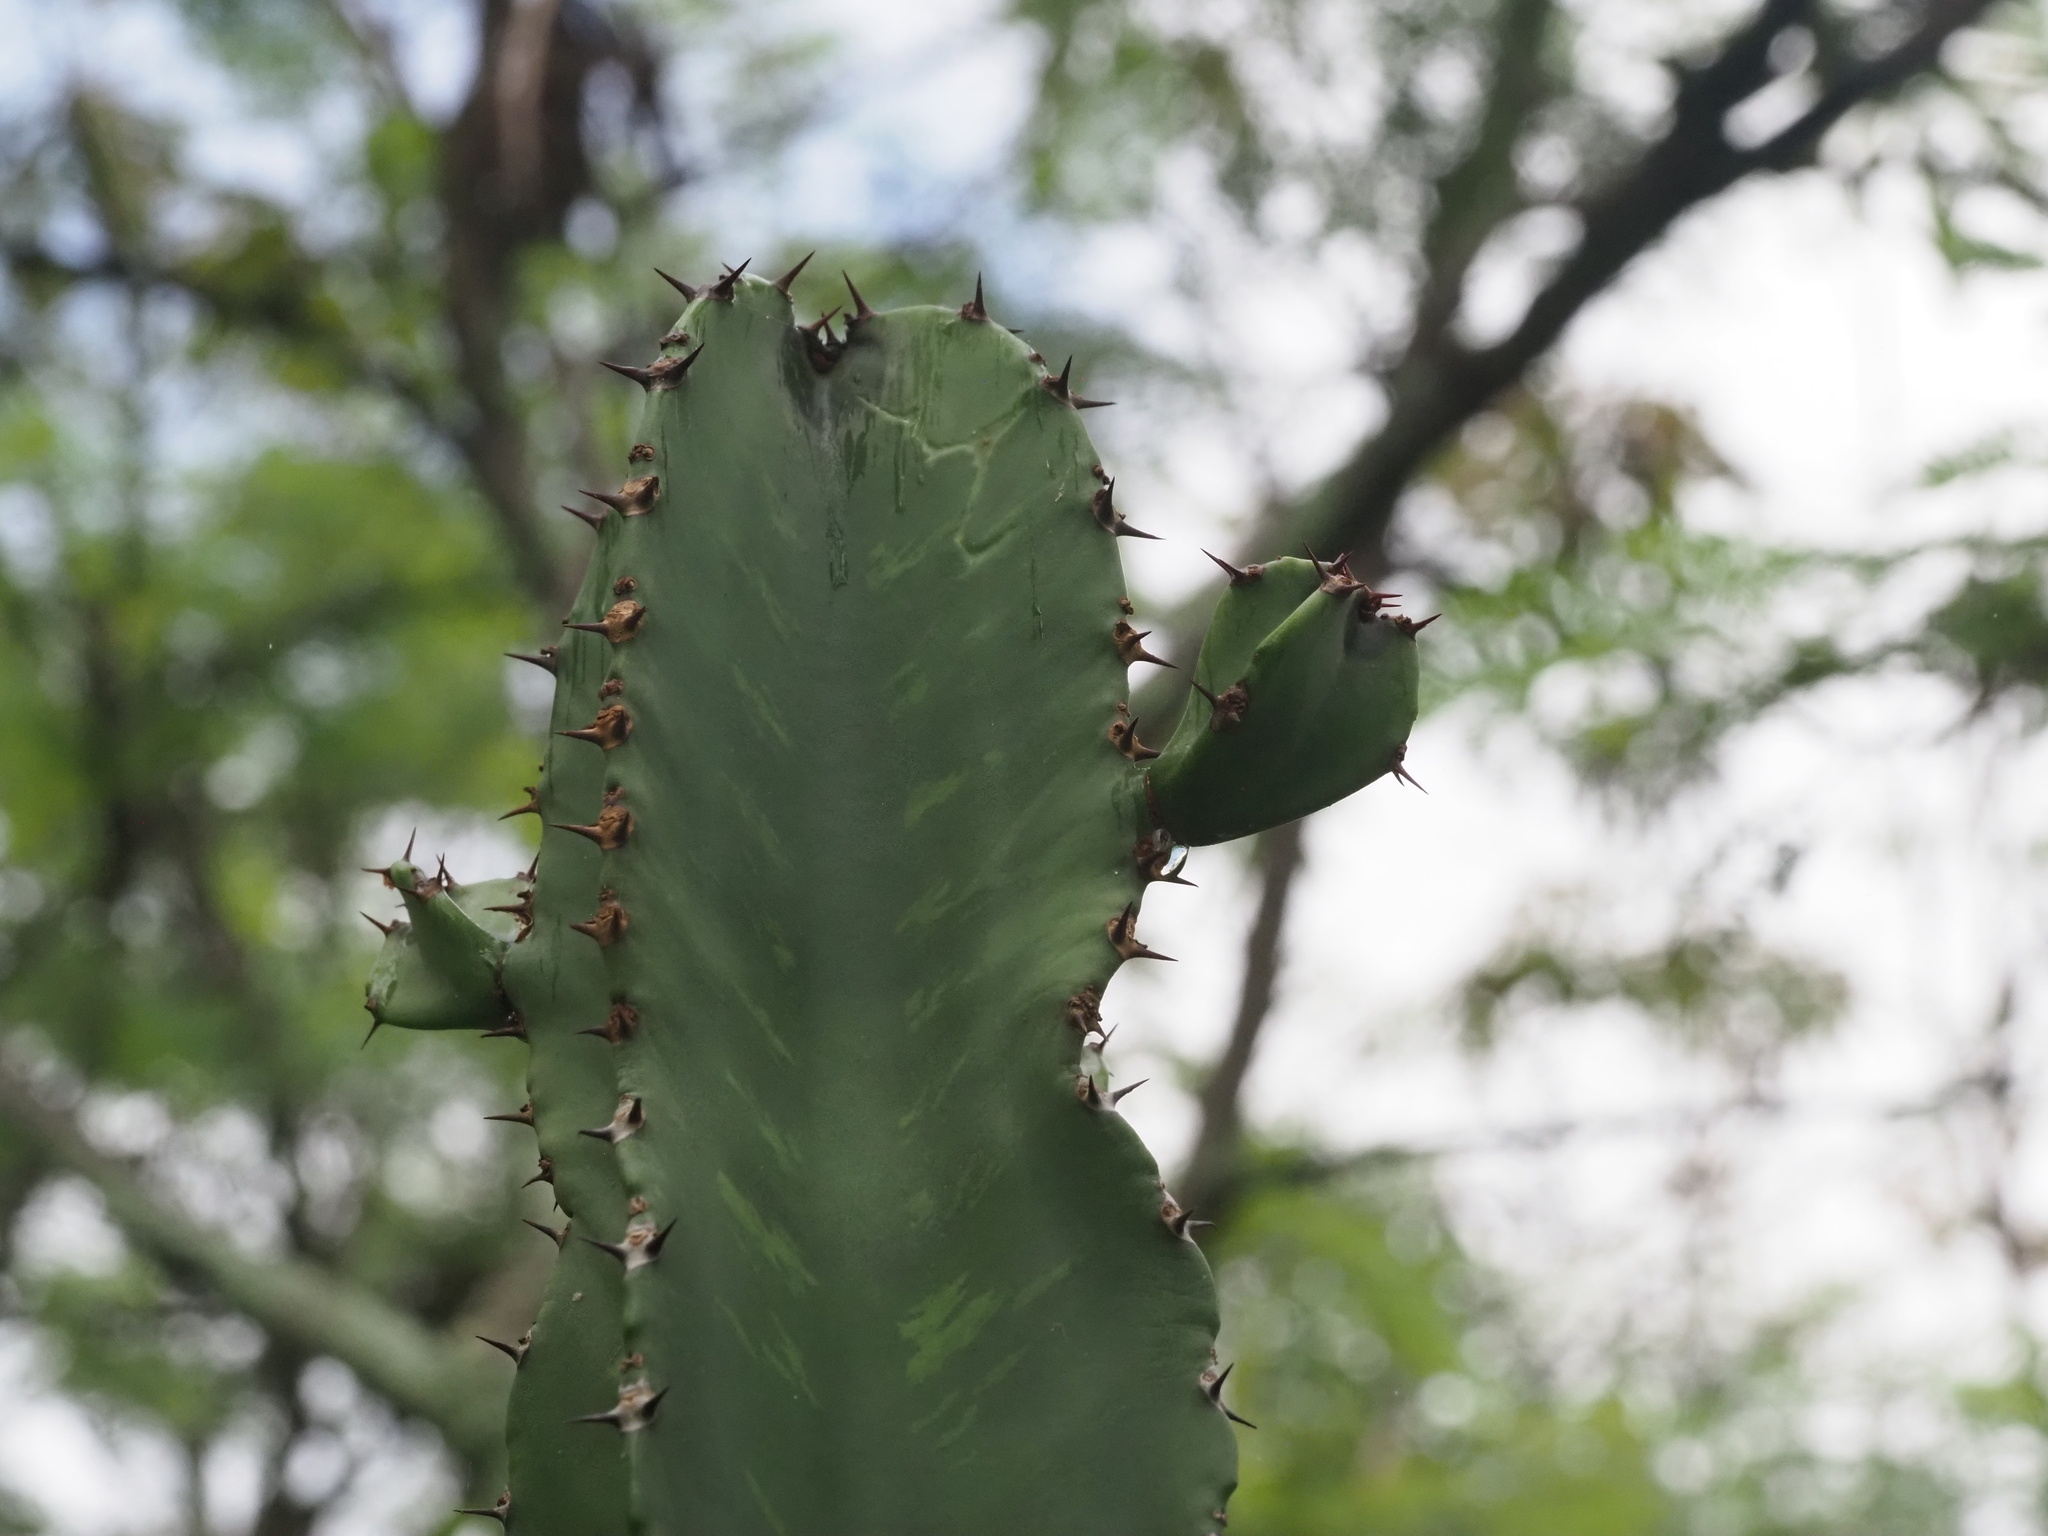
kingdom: Plantae
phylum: Tracheophyta
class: Magnoliopsida
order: Malpighiales
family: Euphorbiaceae
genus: Euphorbia
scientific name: Euphorbia ingens
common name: Cactus spurge
